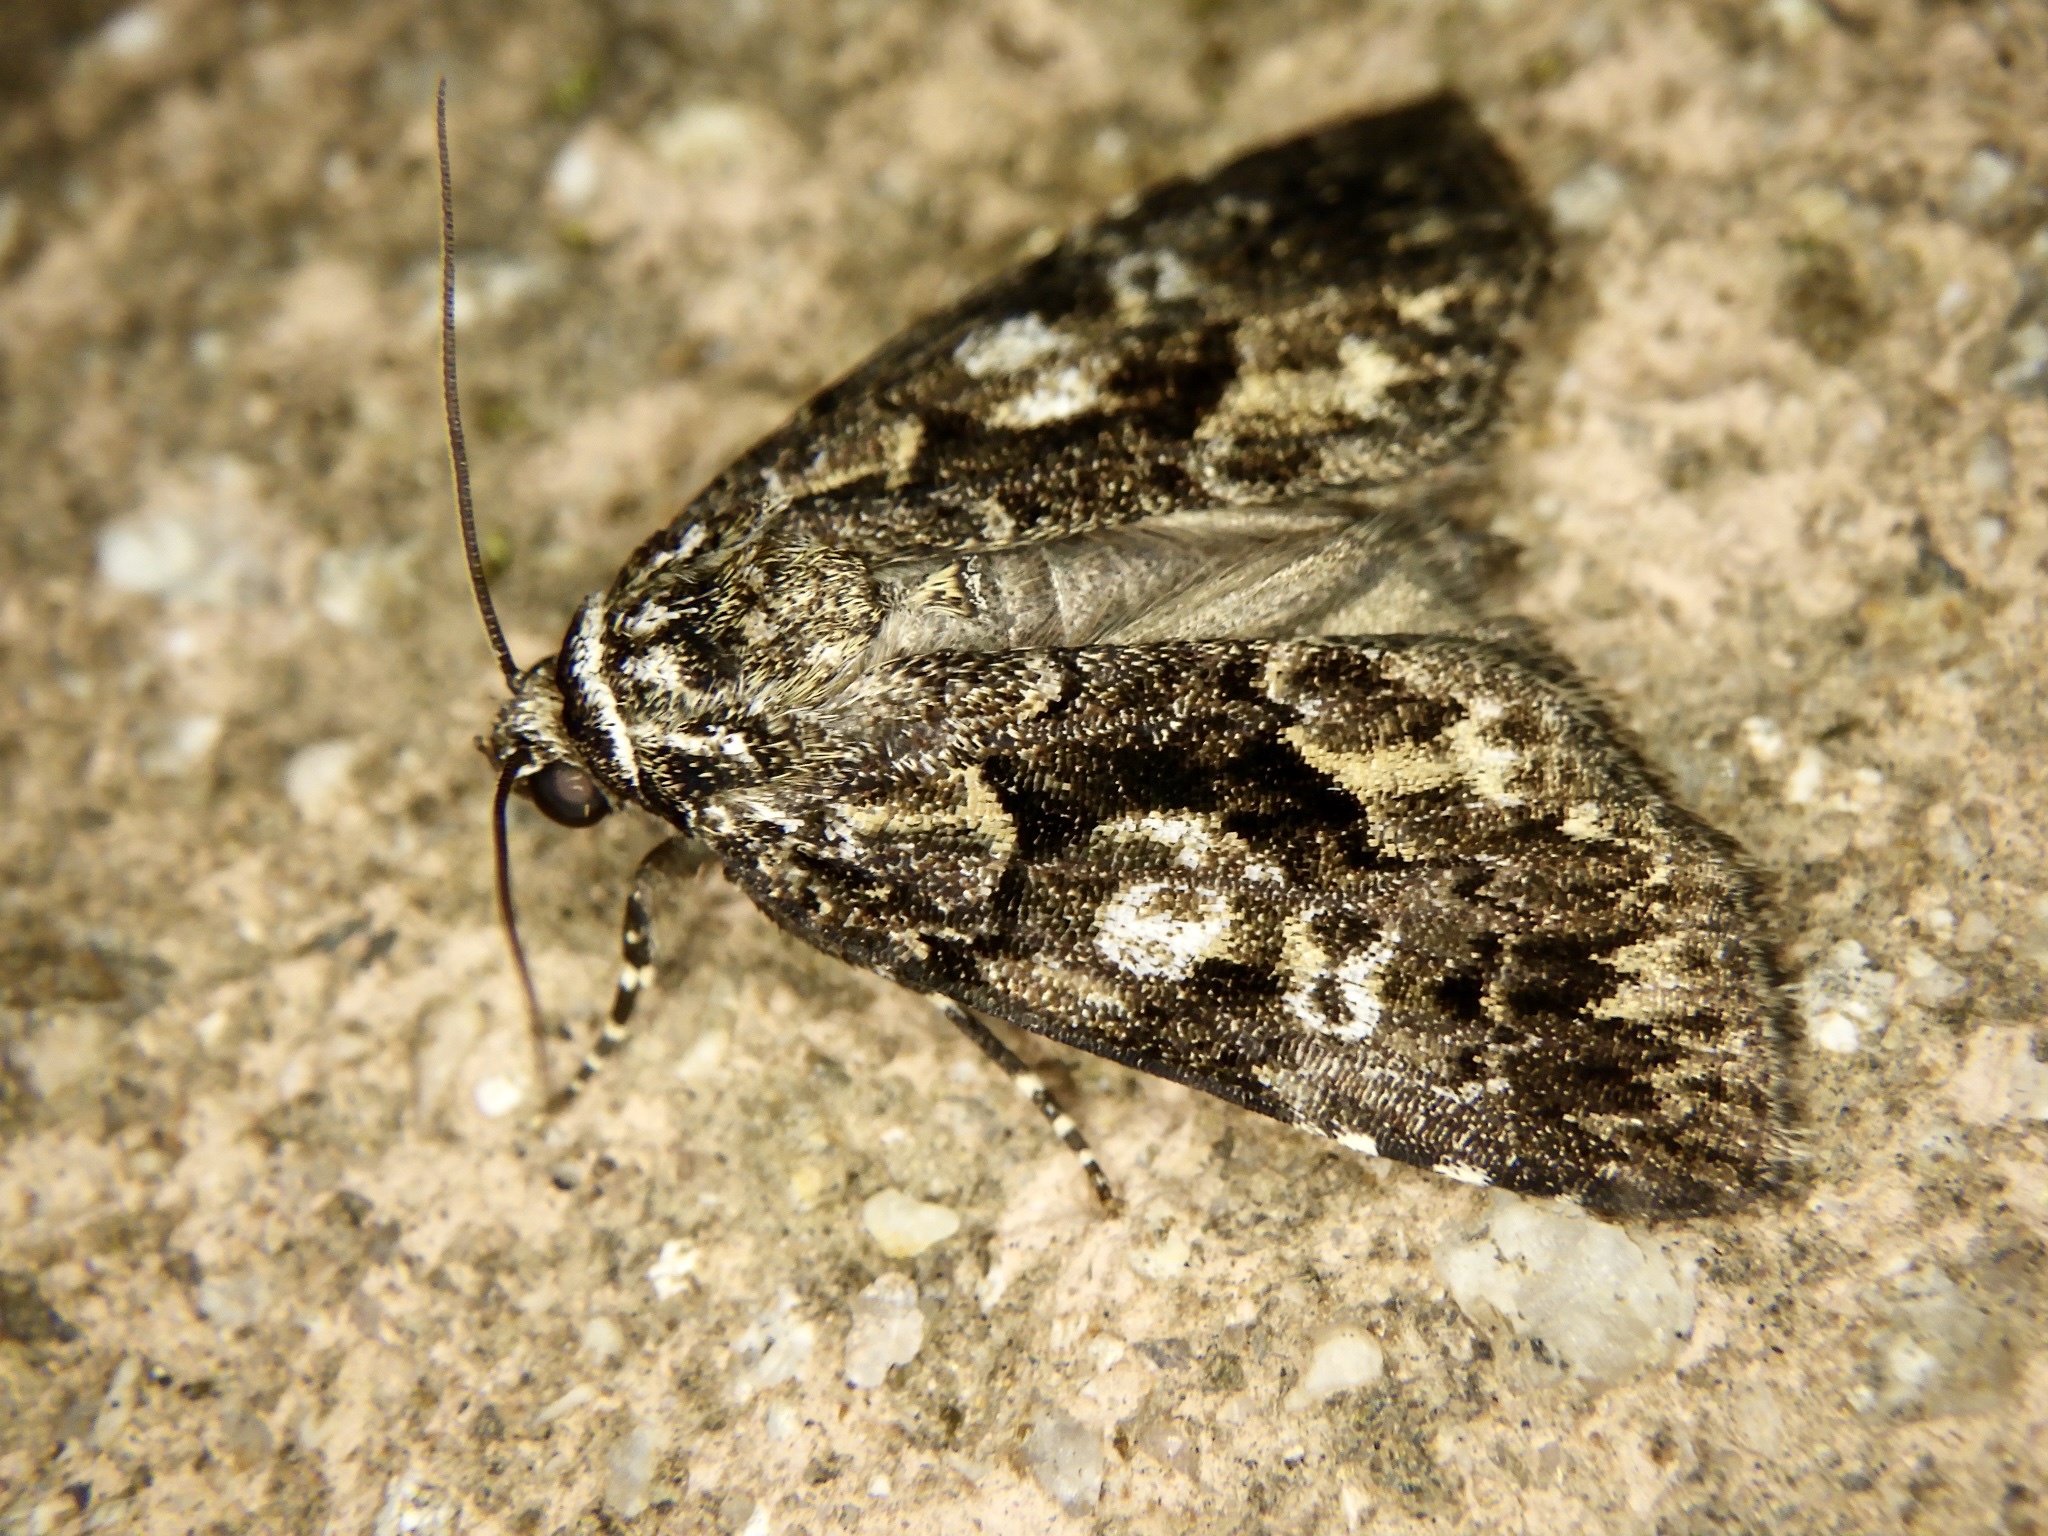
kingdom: Animalia
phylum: Arthropoda
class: Insecta
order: Lepidoptera
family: Noctuidae
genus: Gerbathodes
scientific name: Gerbathodes lichenodes
